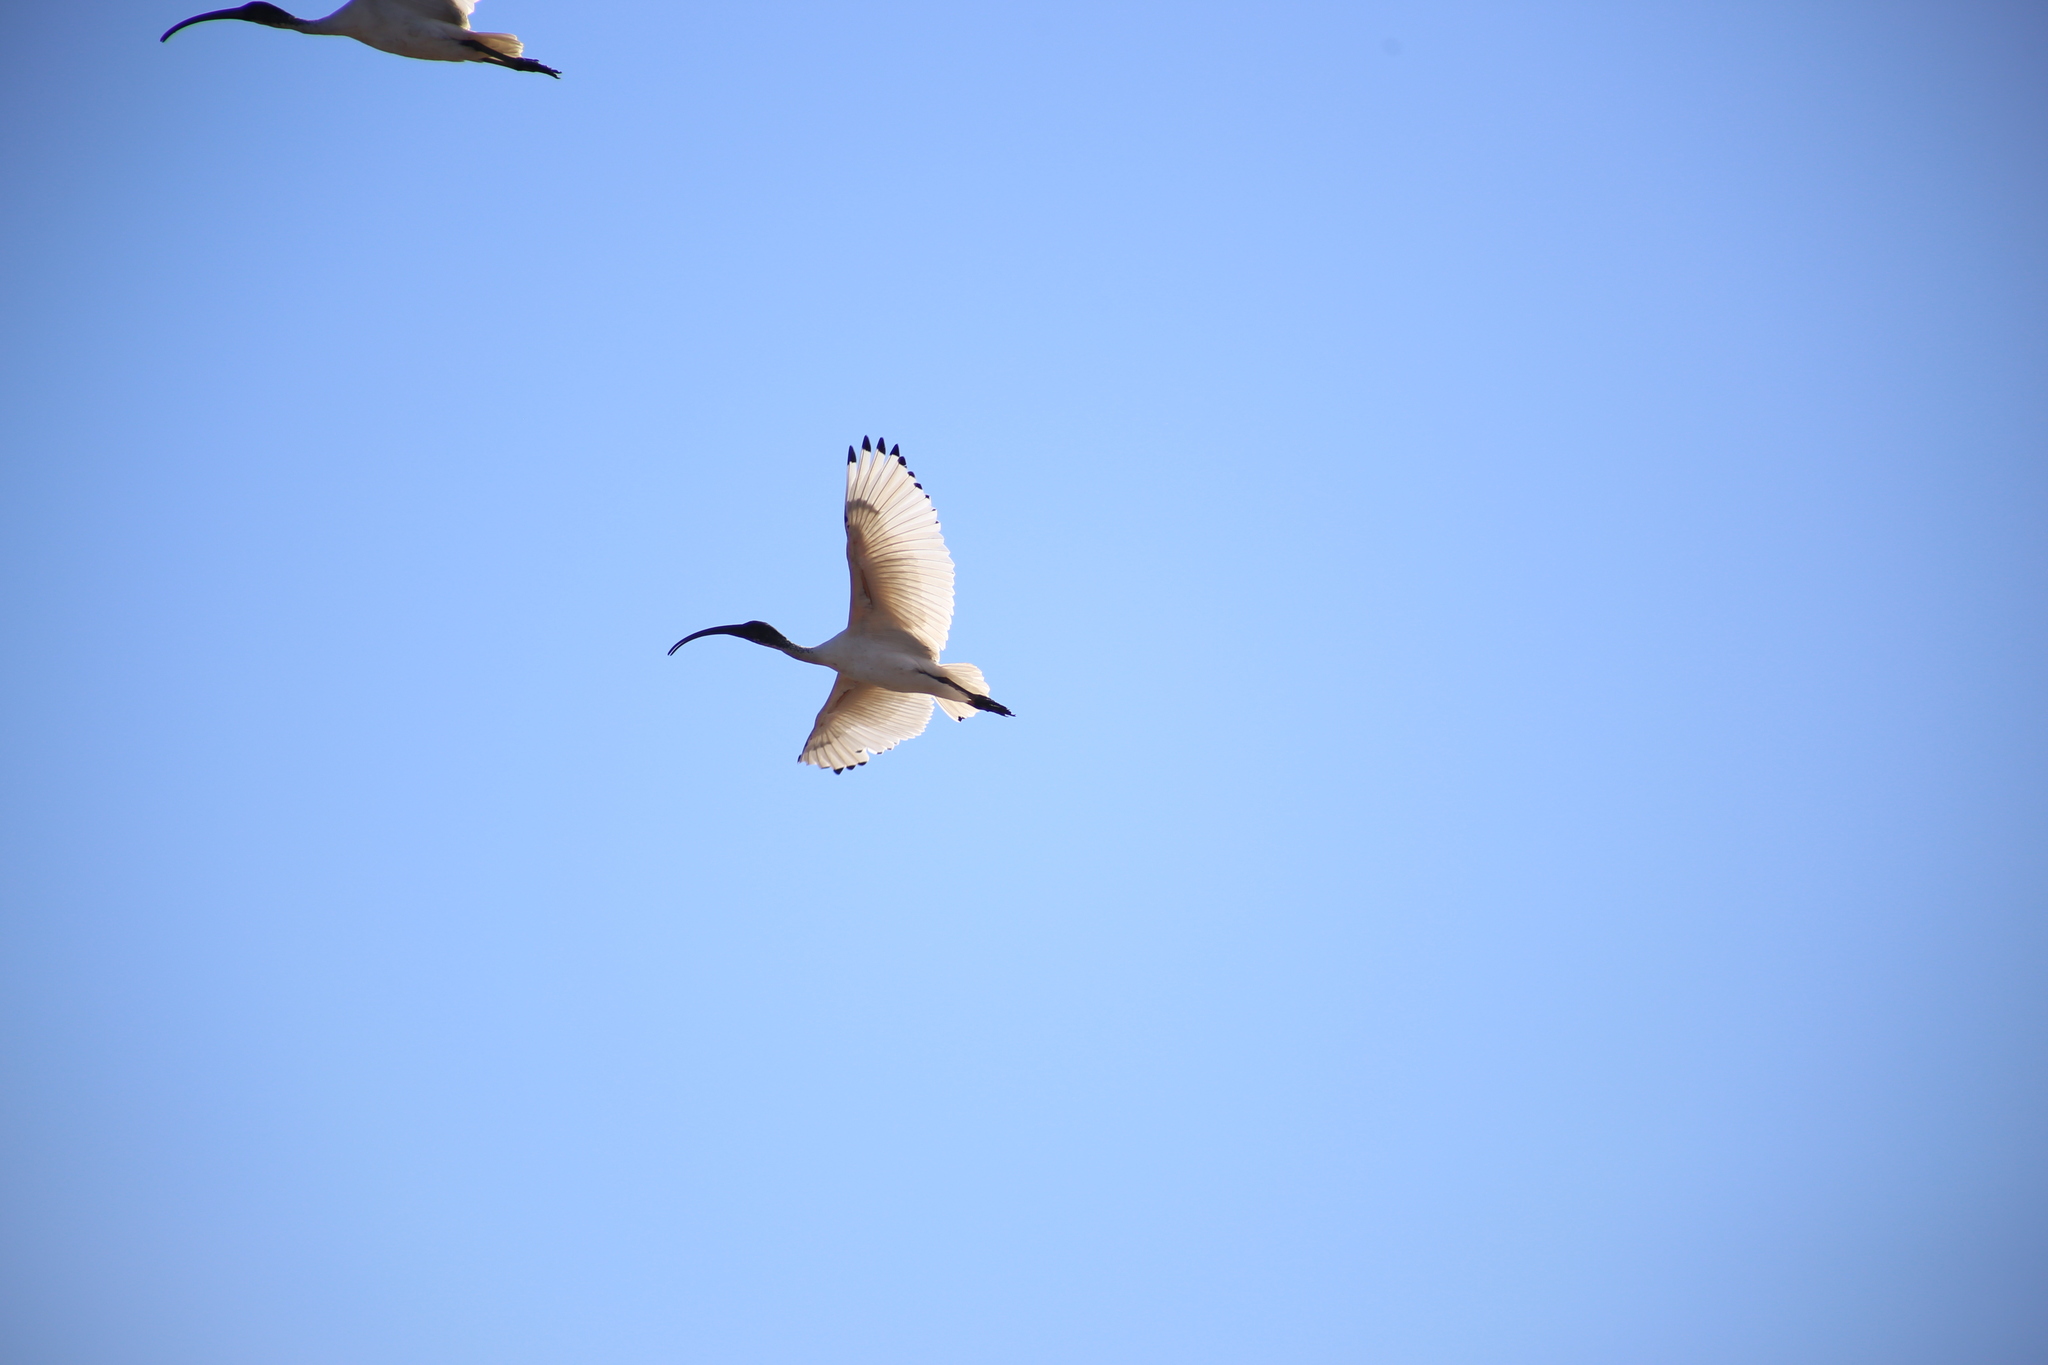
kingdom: Animalia
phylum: Chordata
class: Aves
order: Pelecaniformes
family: Threskiornithidae
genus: Threskiornis
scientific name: Threskiornis molucca
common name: Australian white ibis
